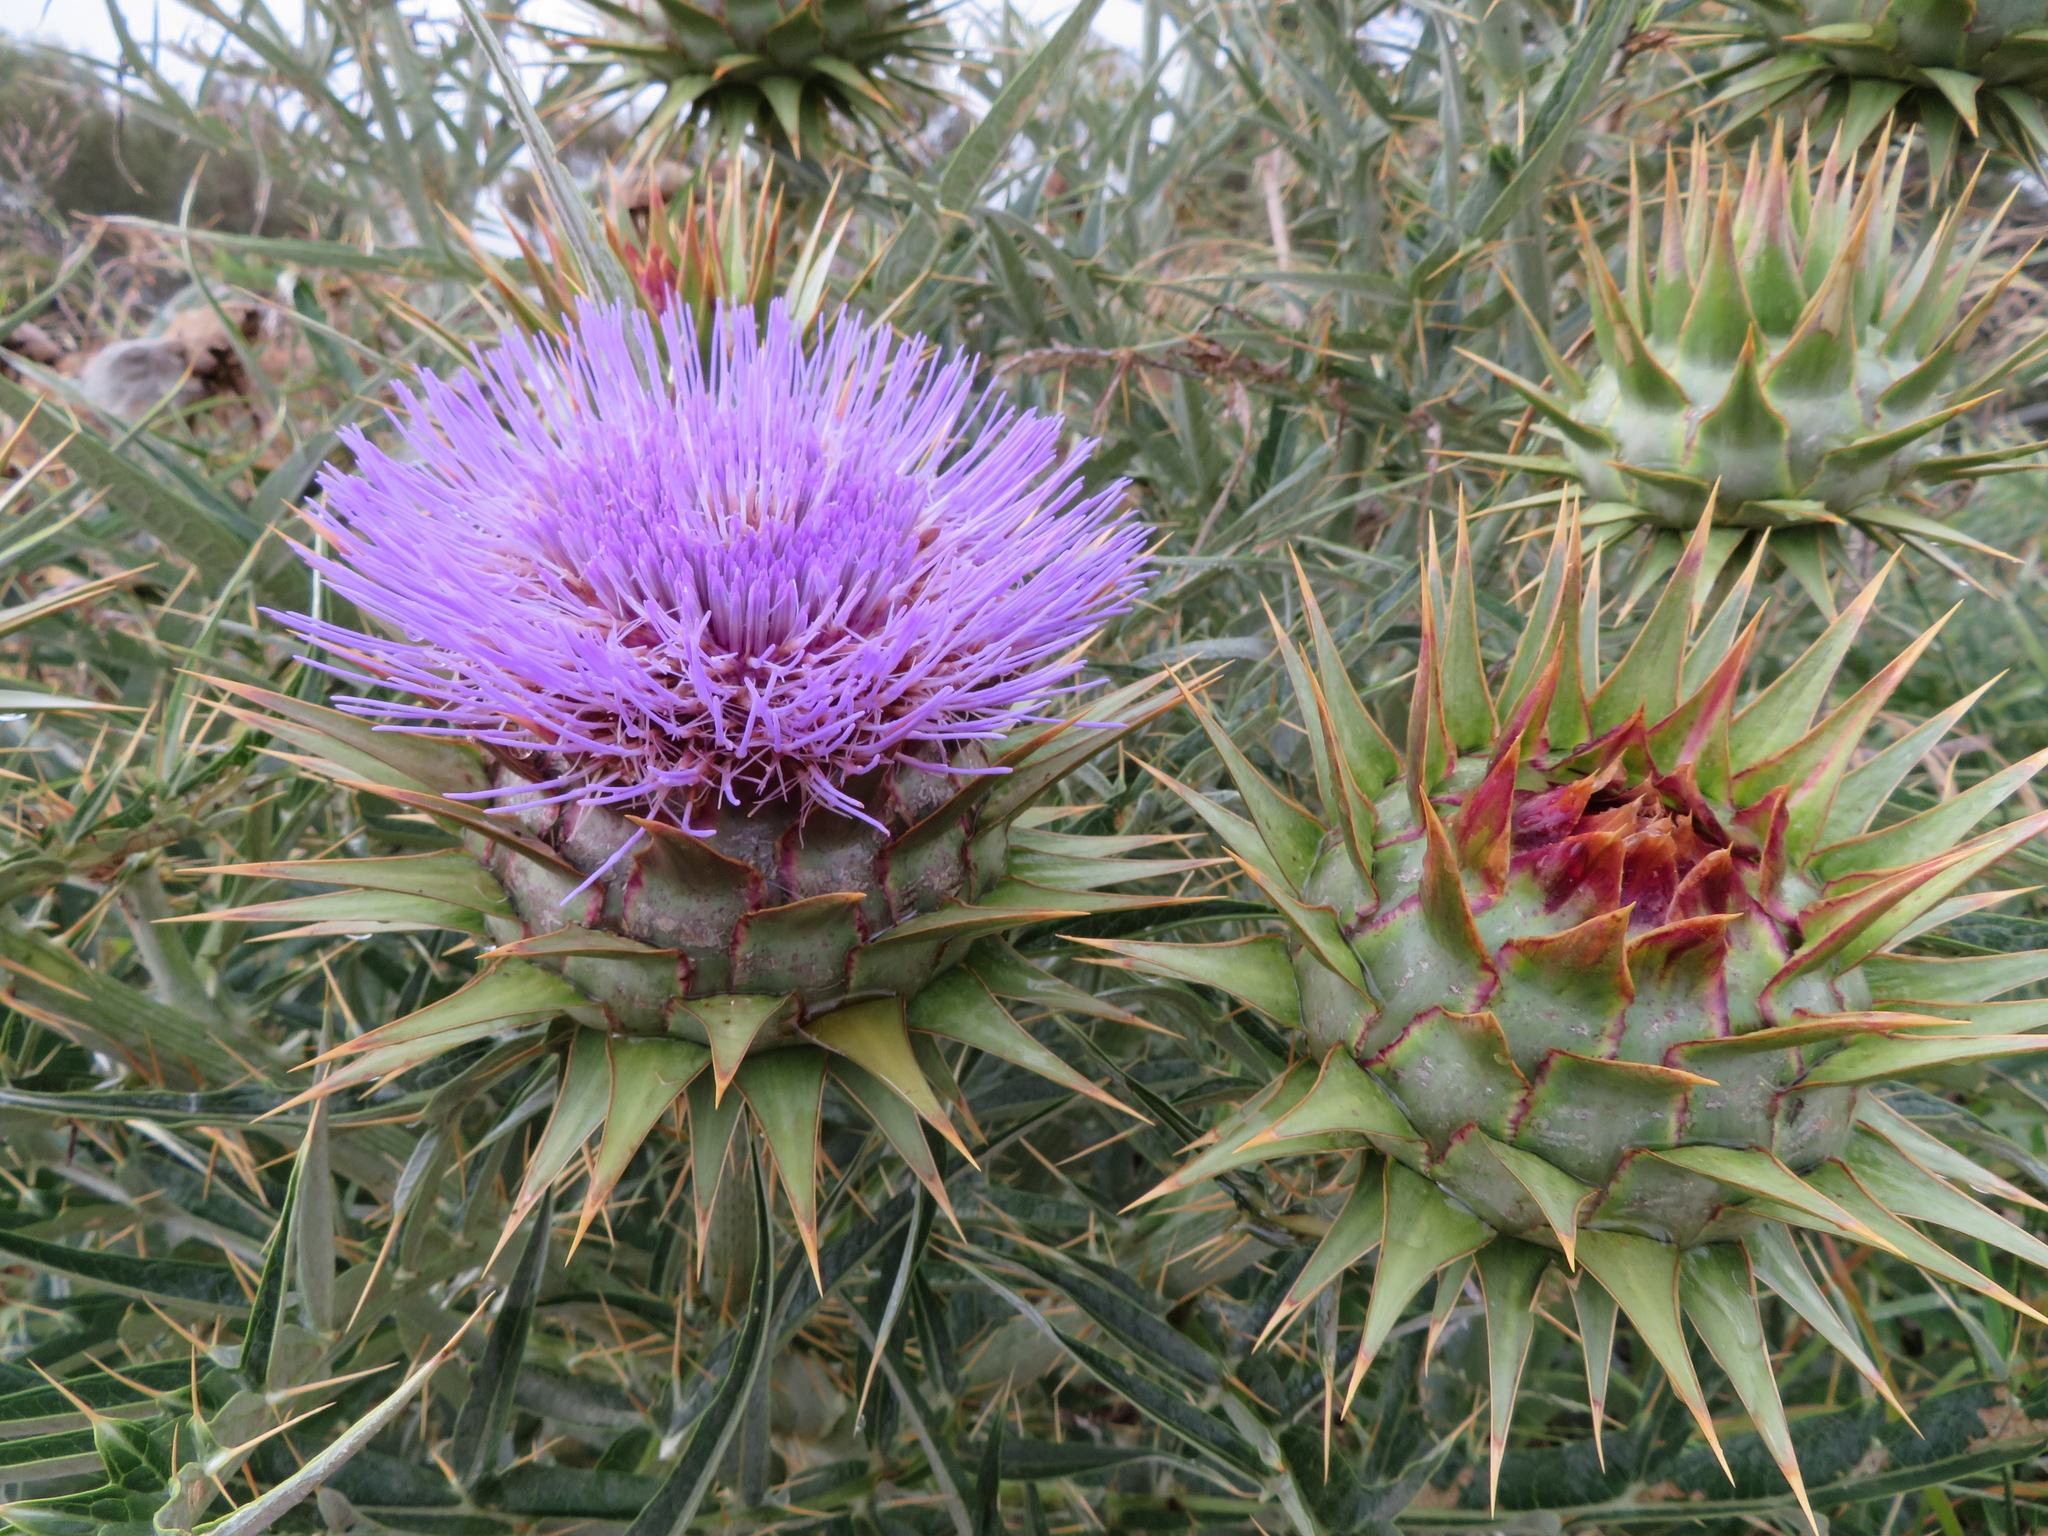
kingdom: Plantae
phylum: Tracheophyta
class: Magnoliopsida
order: Asterales
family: Asteraceae
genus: Cynara
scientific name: Cynara cardunculus
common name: Globe artichoke
